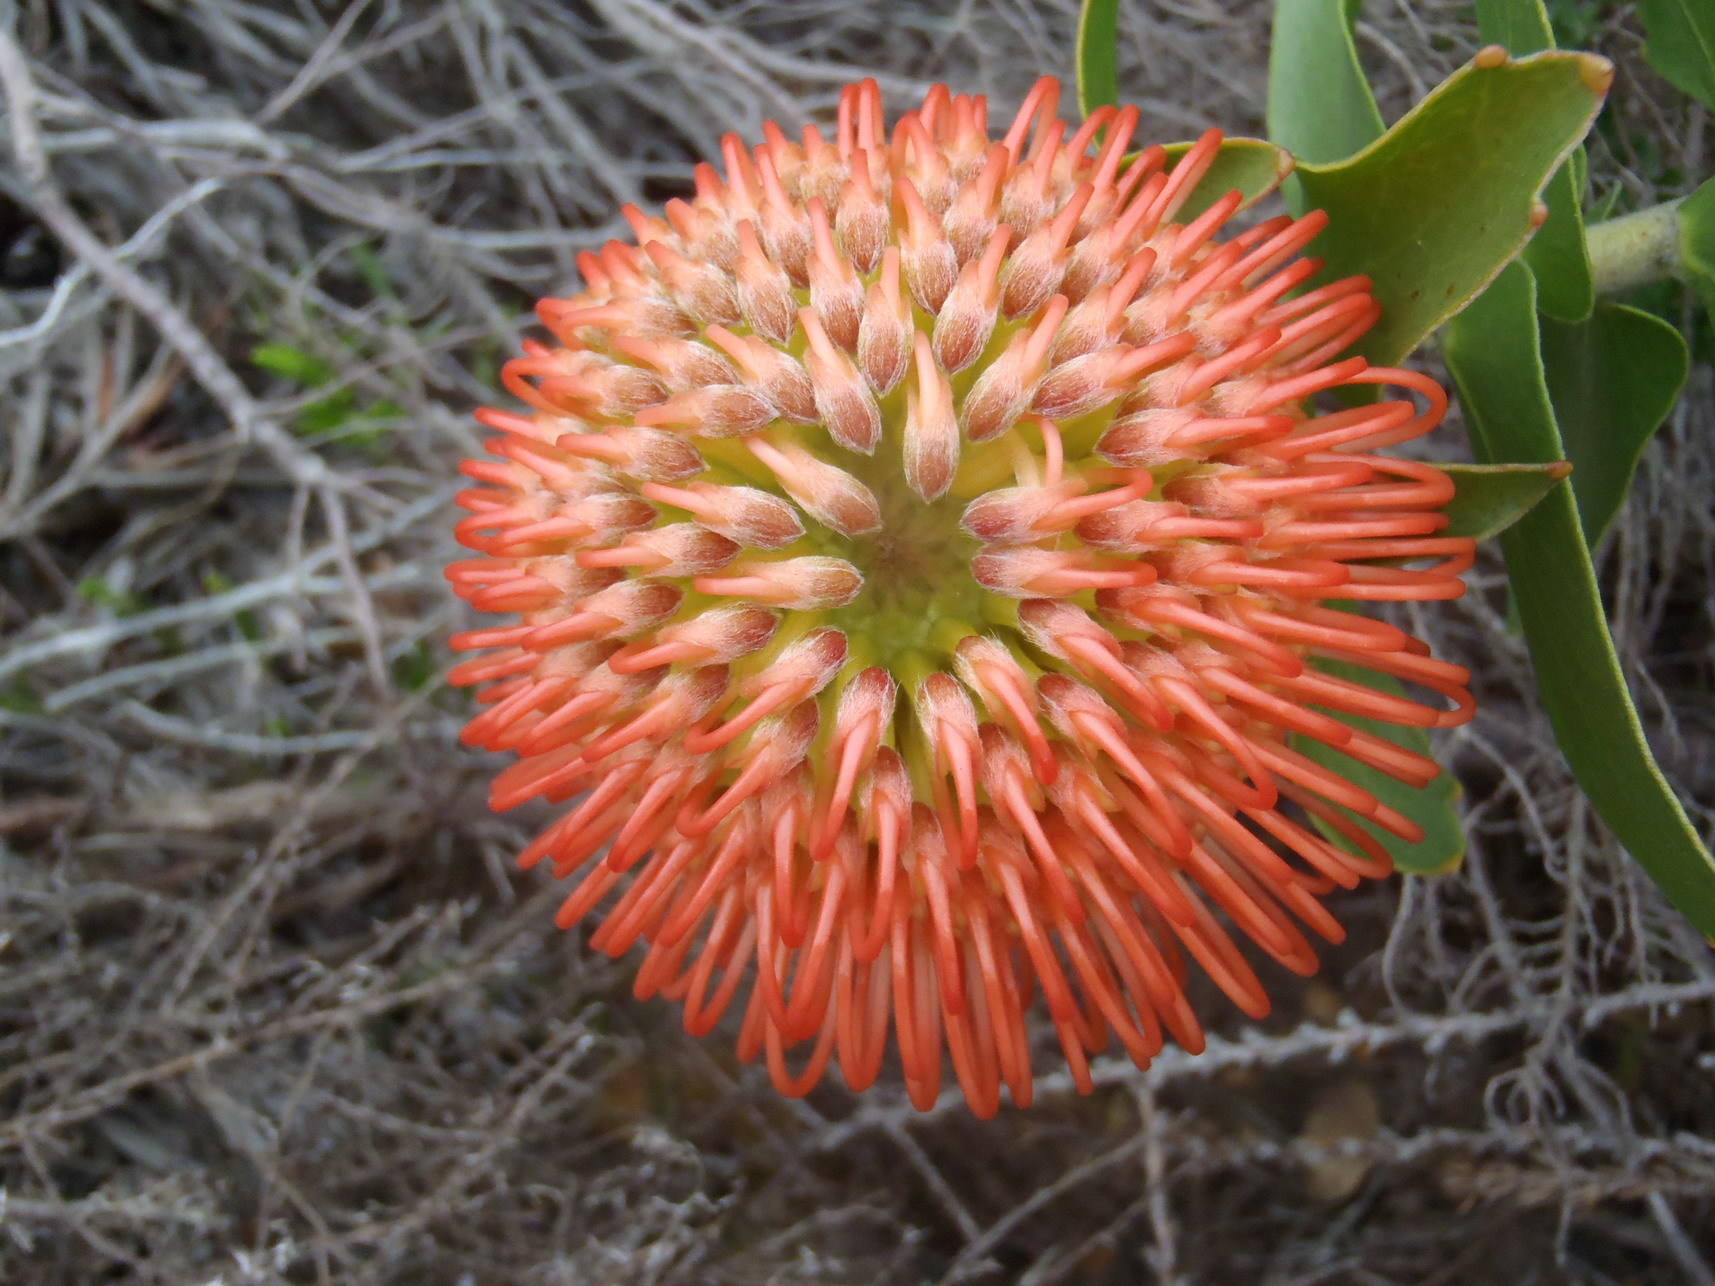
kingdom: Plantae
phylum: Tracheophyta
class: Magnoliopsida
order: Proteales
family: Proteaceae
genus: Leucospermum
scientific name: Leucospermum cordifolium
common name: Red pincushion-protea
